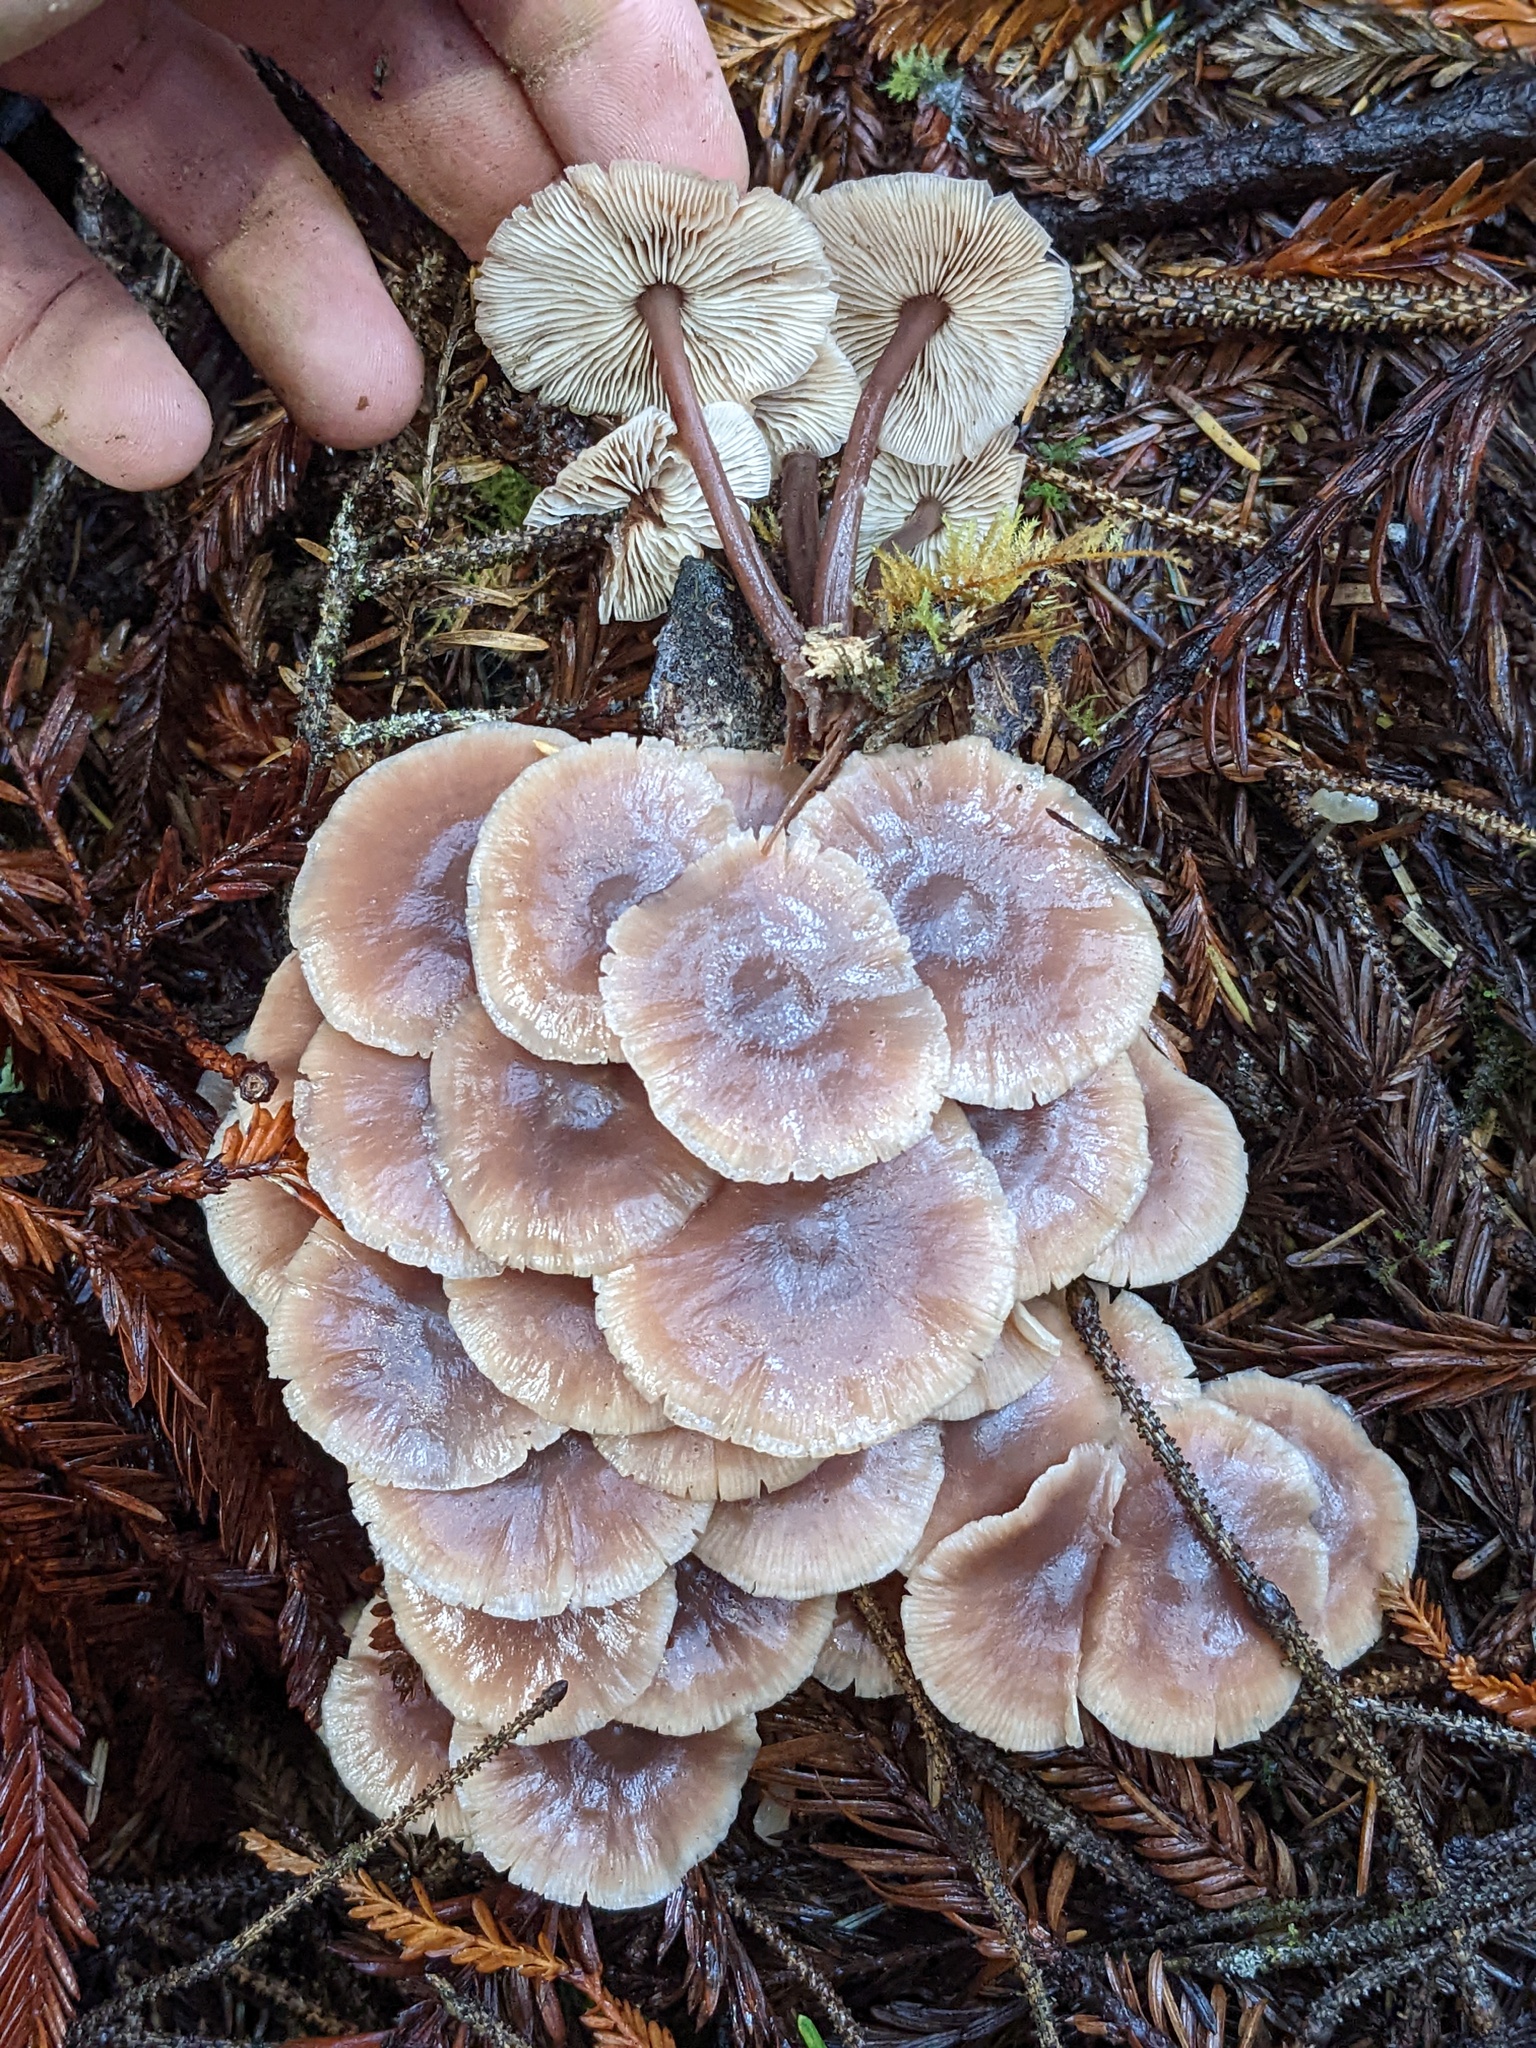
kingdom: Fungi
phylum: Basidiomycota
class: Agaricomycetes
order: Agaricales
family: Omphalotaceae
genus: Connopus
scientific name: Connopus acervatus
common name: Cluster cap
